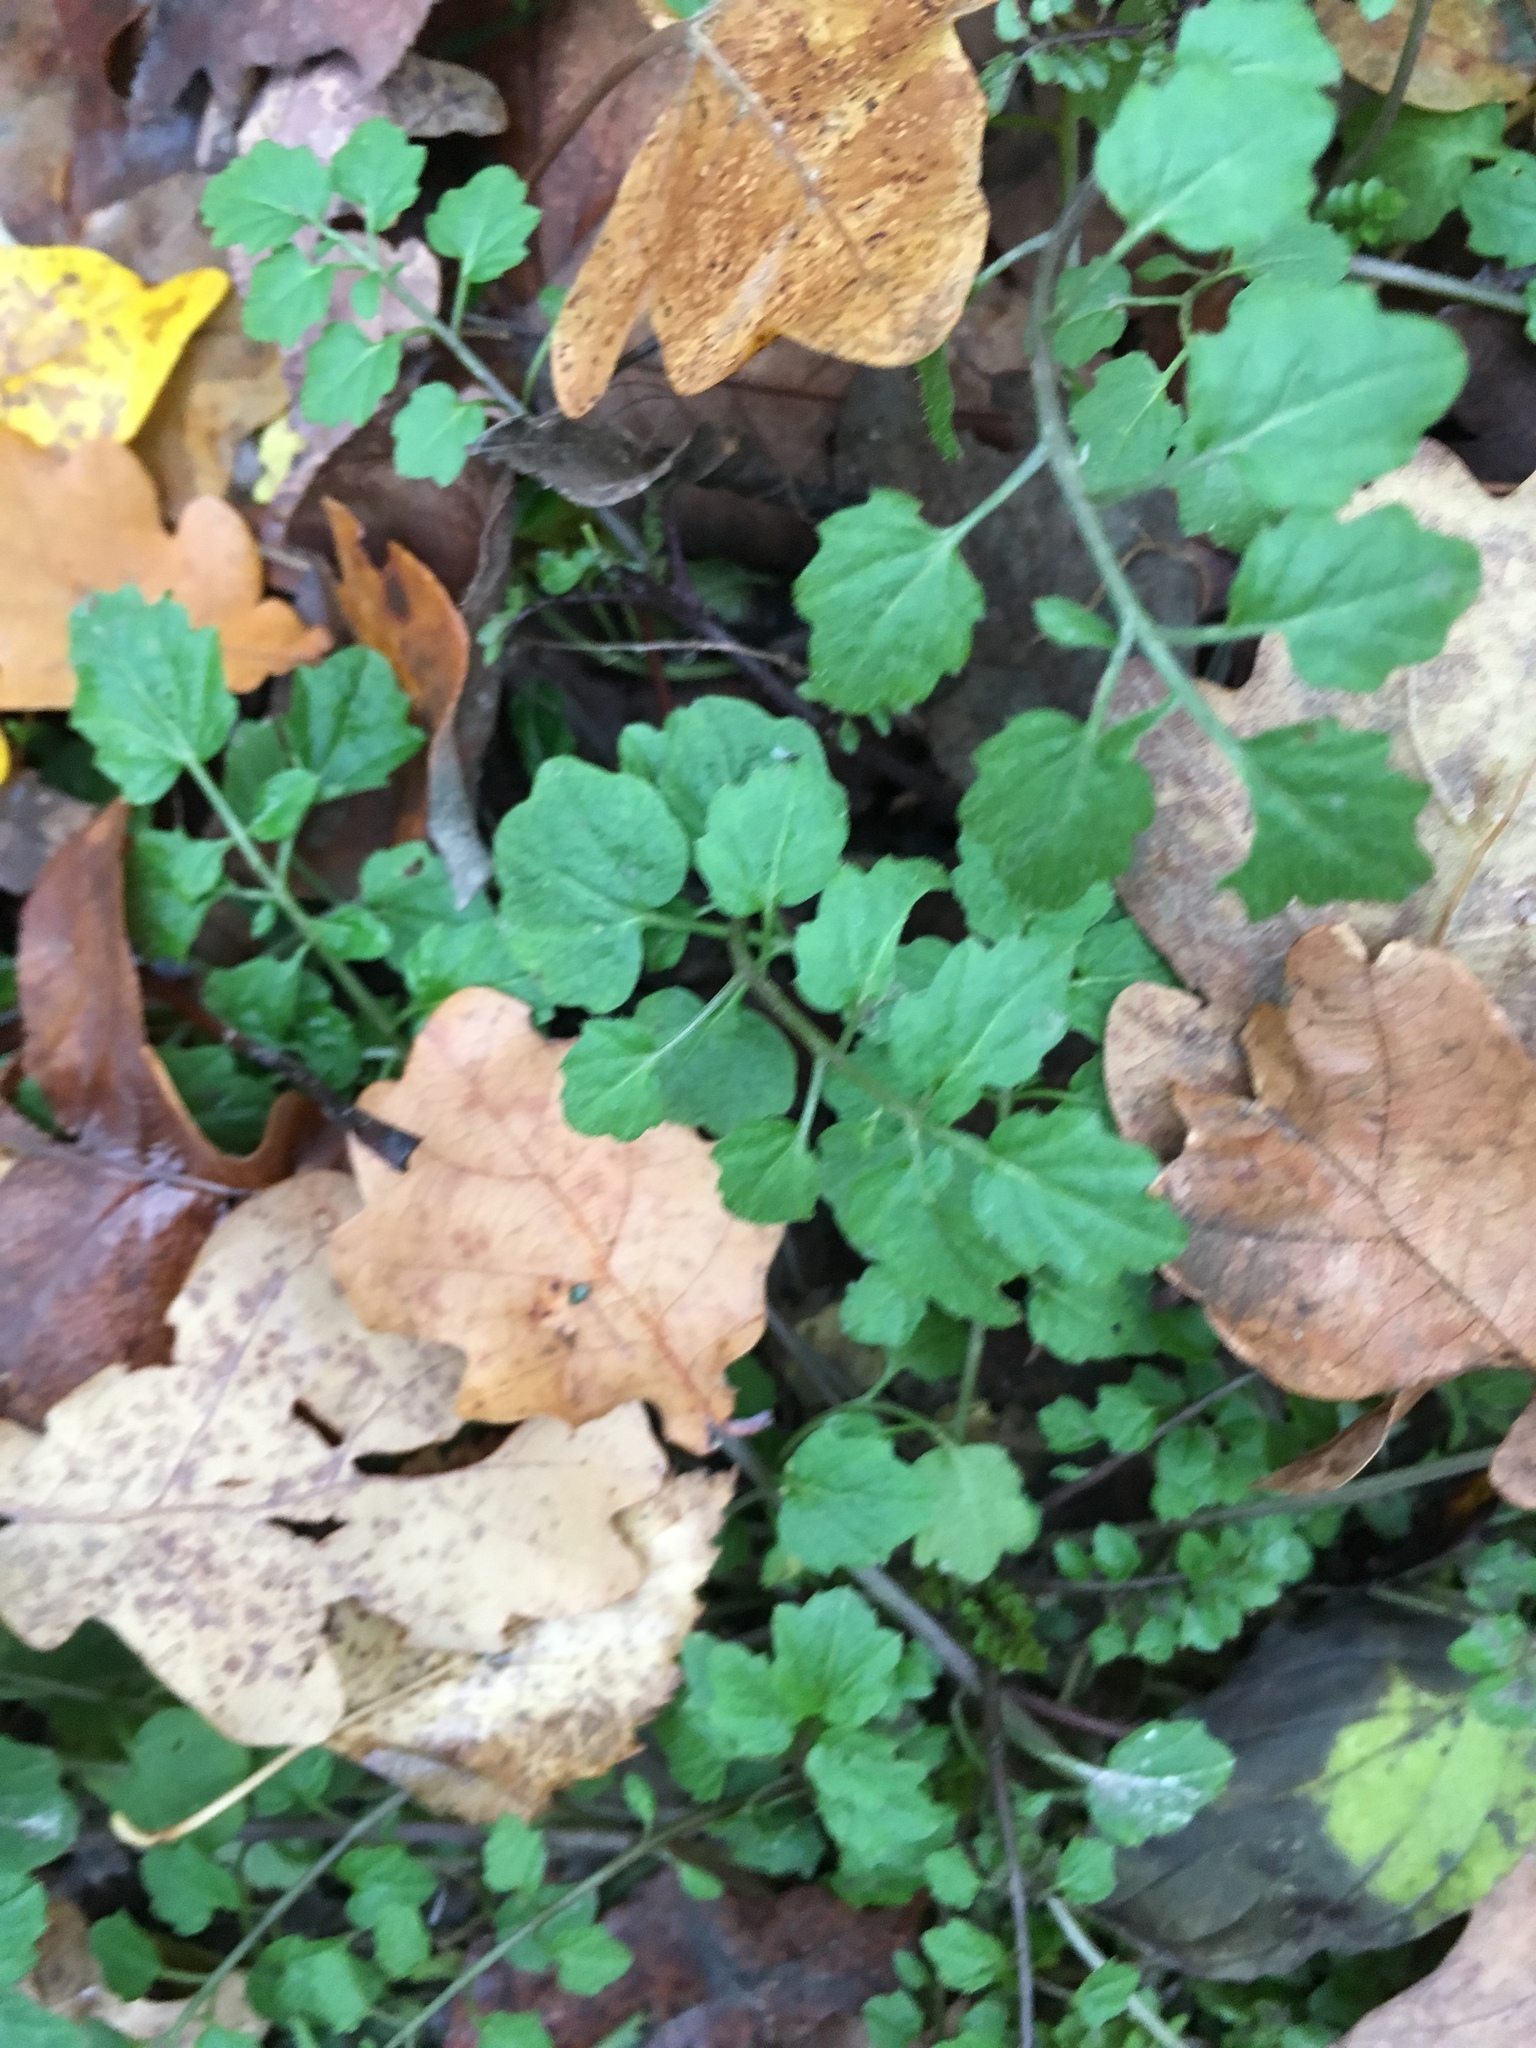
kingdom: Plantae
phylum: Tracheophyta
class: Magnoliopsida
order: Brassicales
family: Brassicaceae
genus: Cardamine
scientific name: Cardamine flexuosa
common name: Woodland bittercress
